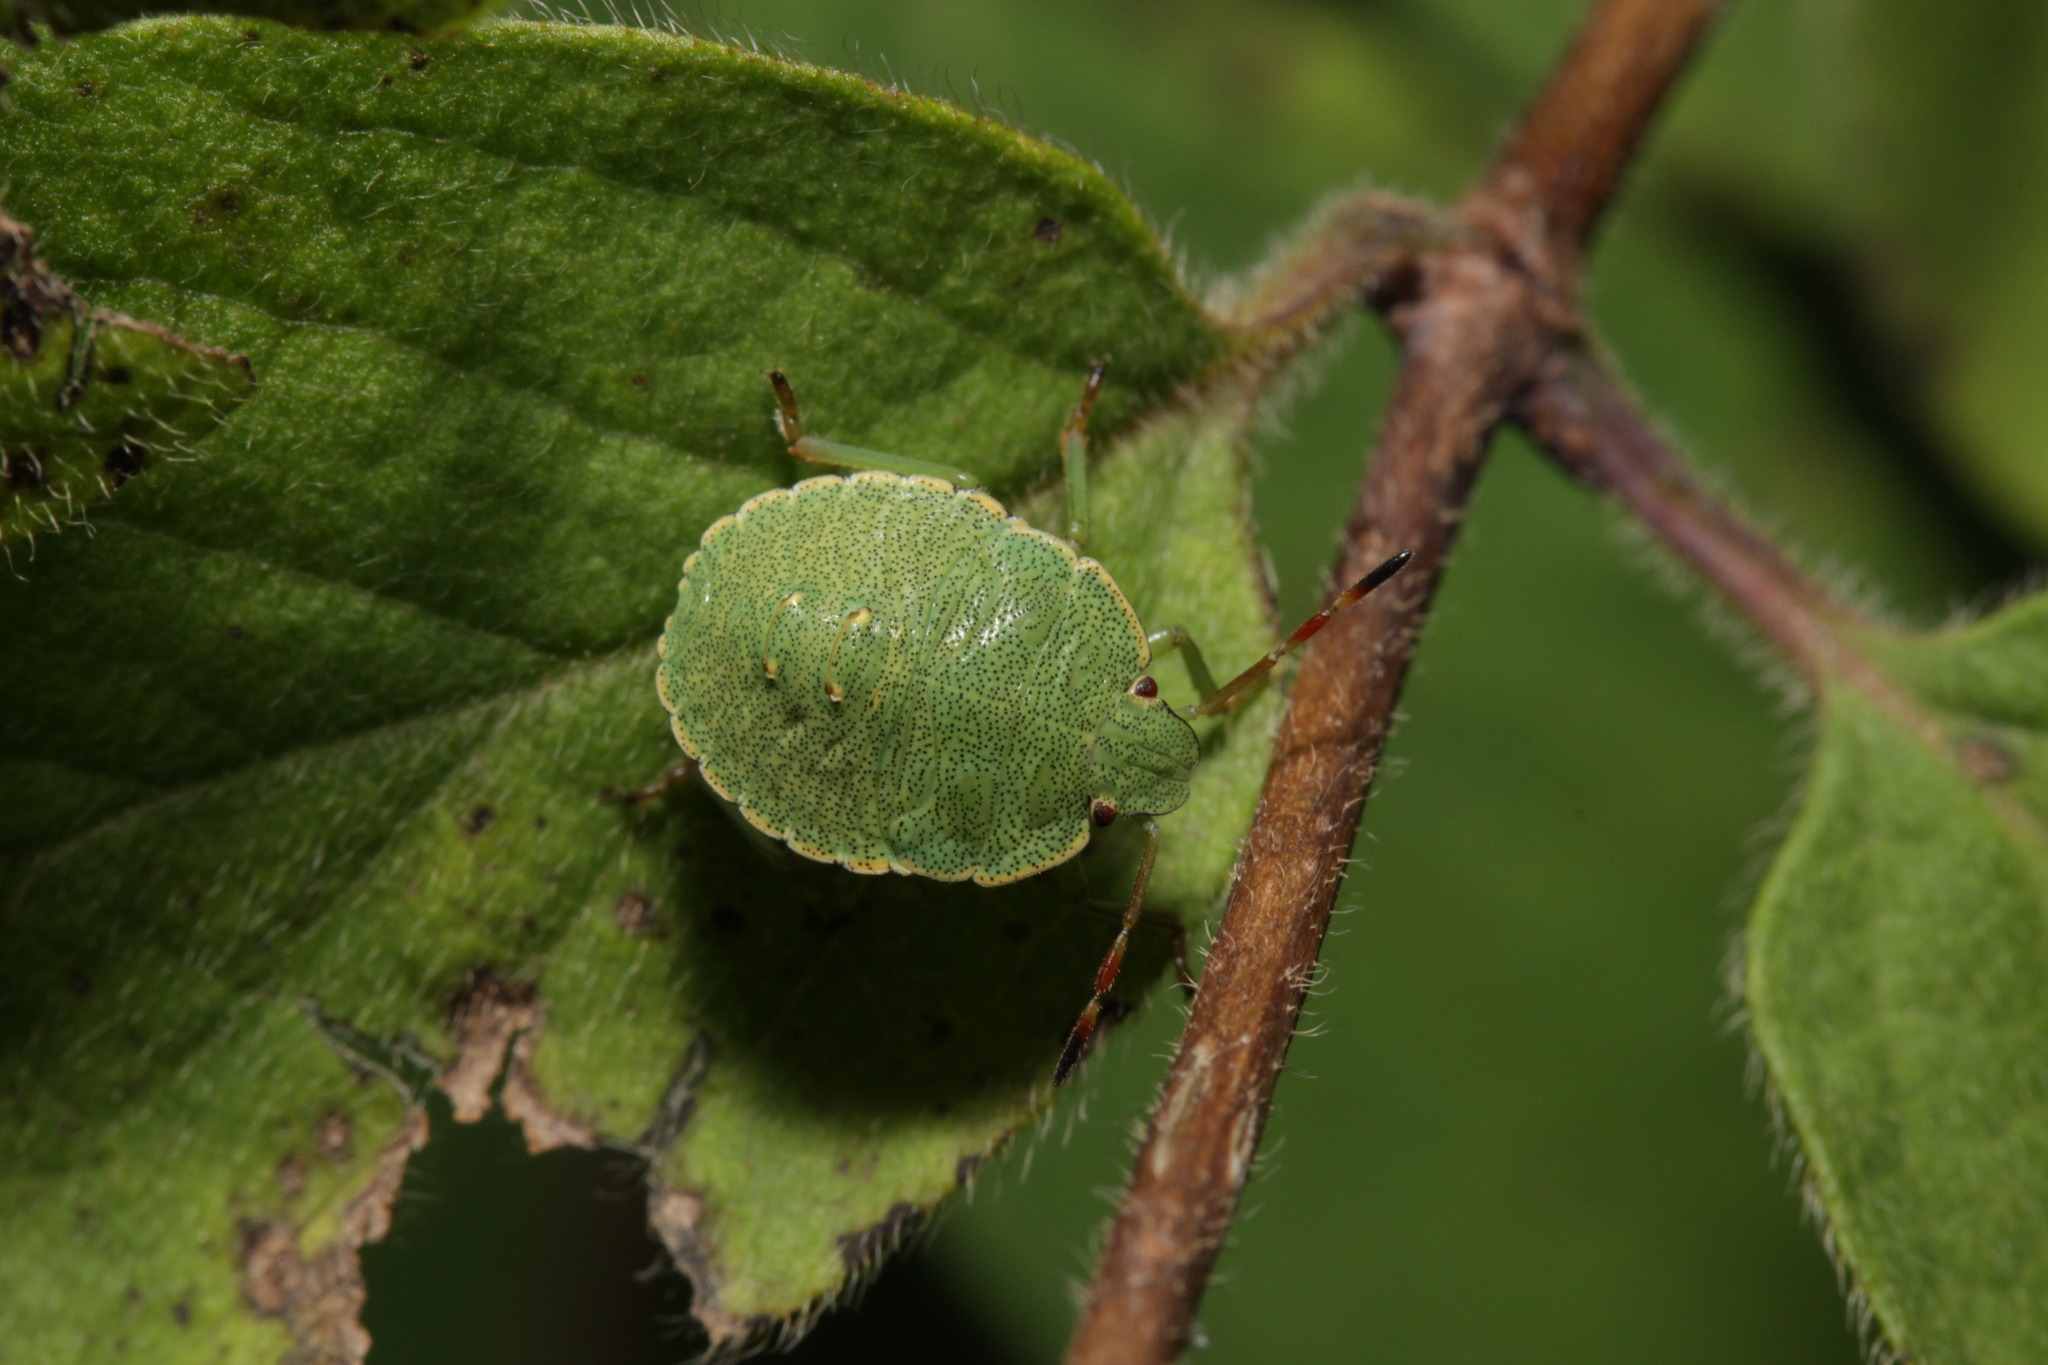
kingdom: Animalia
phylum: Arthropoda
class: Insecta
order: Hemiptera
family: Pentatomidae
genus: Palomena
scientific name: Palomena prasina
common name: Green shieldbug
